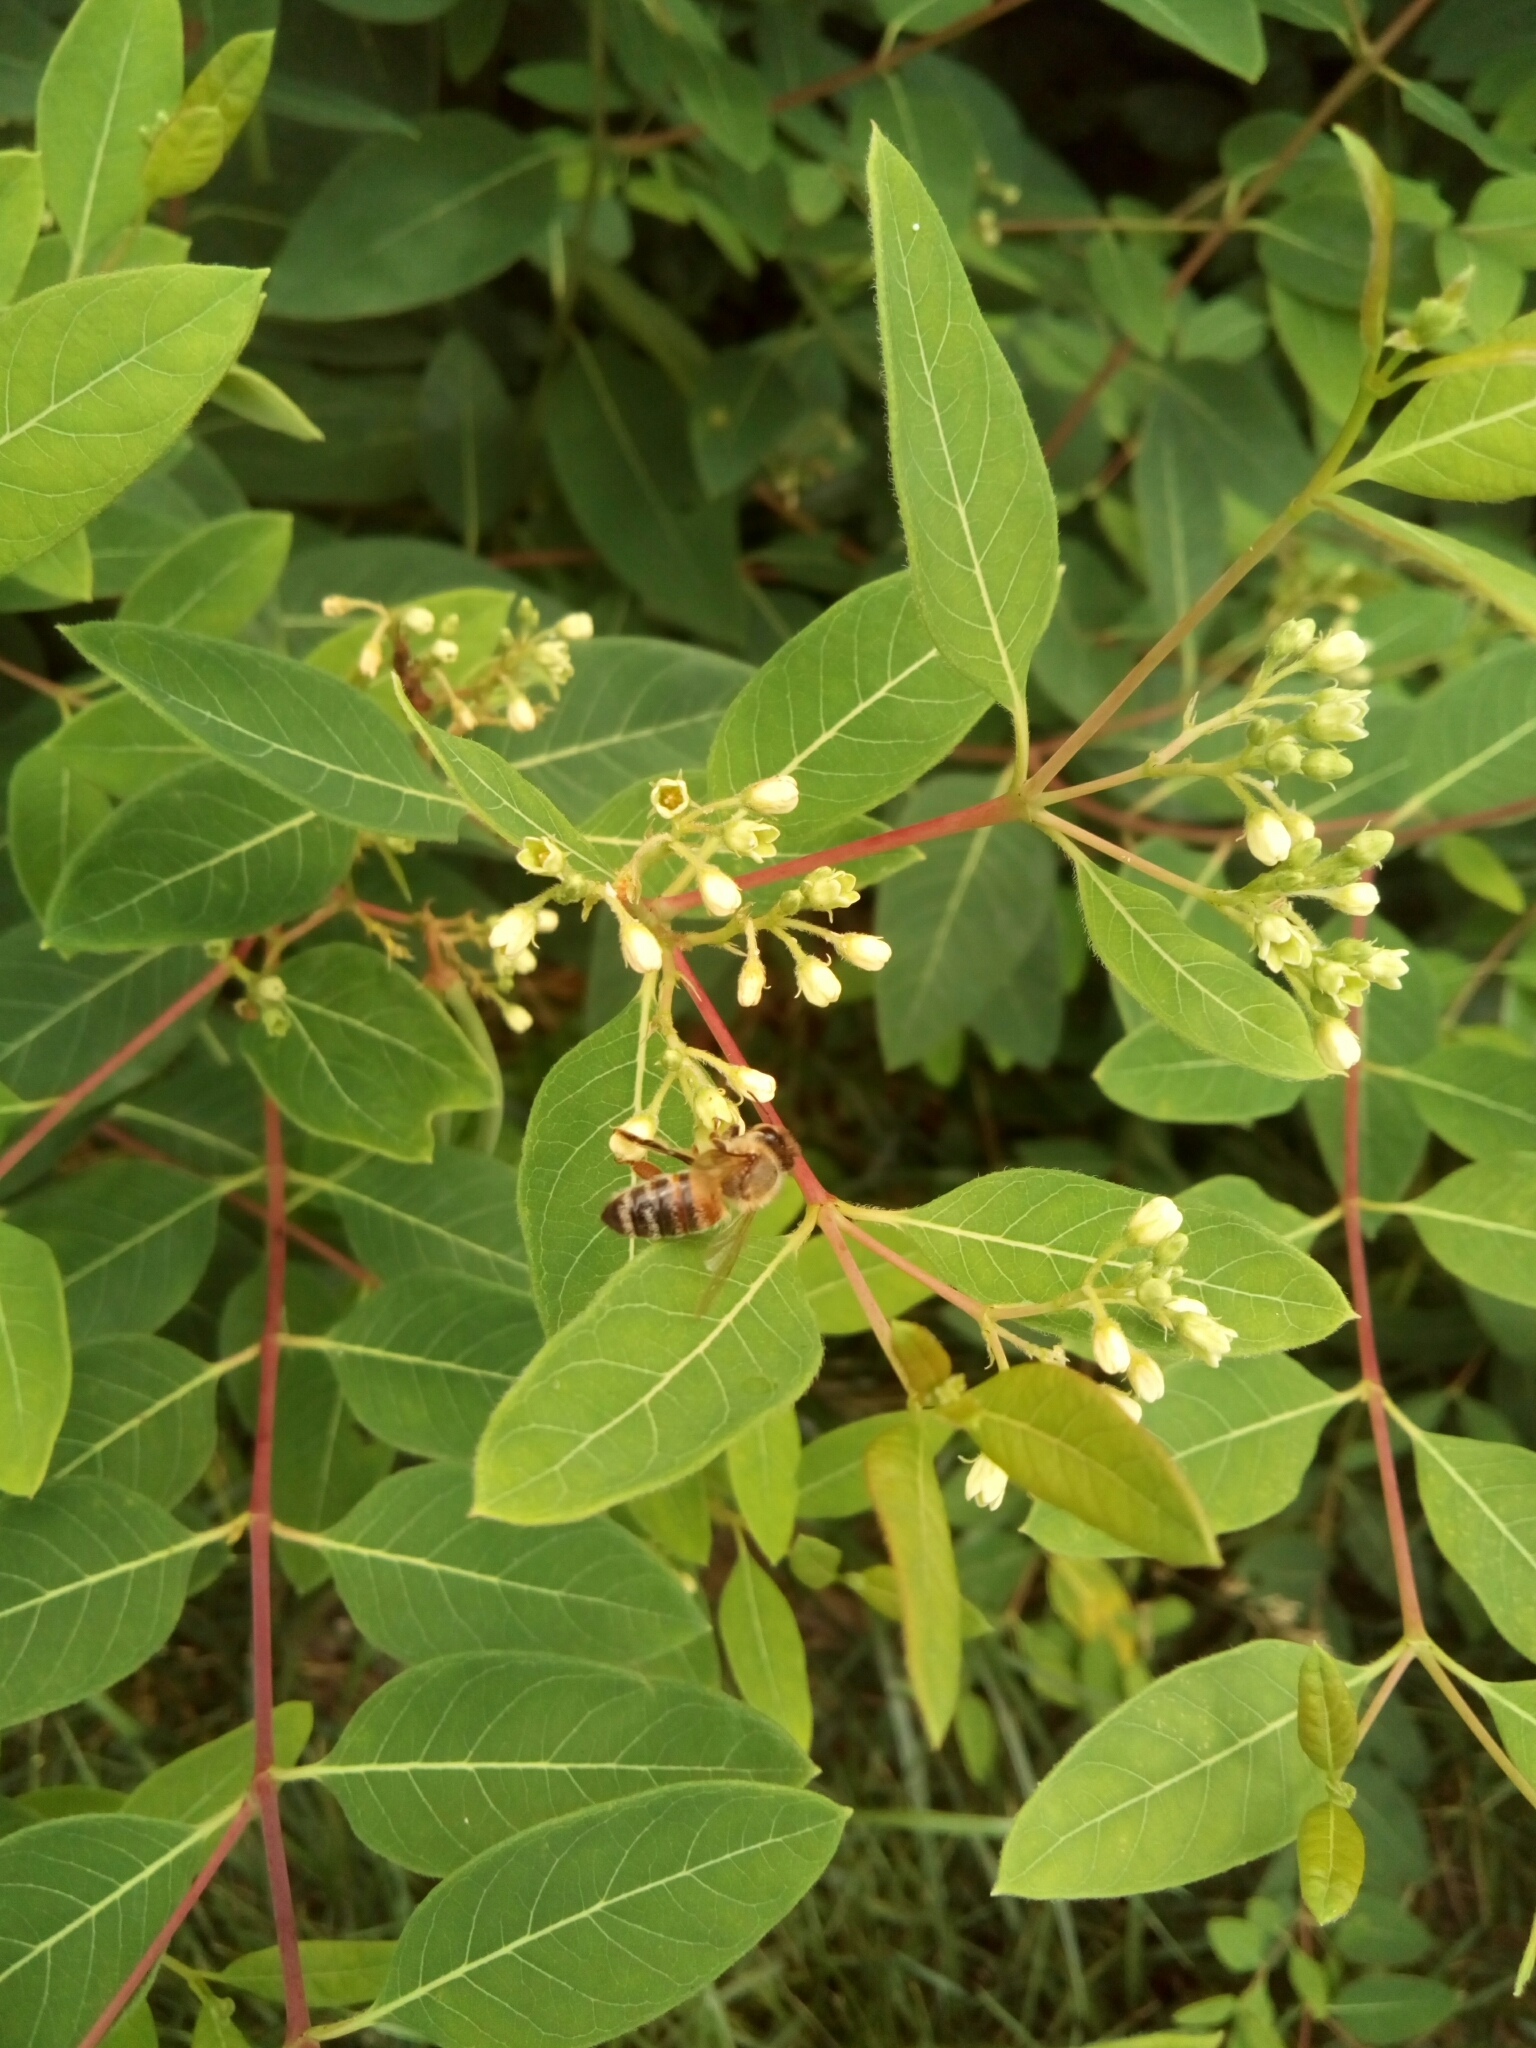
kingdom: Animalia
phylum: Arthropoda
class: Insecta
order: Hymenoptera
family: Apidae
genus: Apis
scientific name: Apis mellifera
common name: Honey bee
